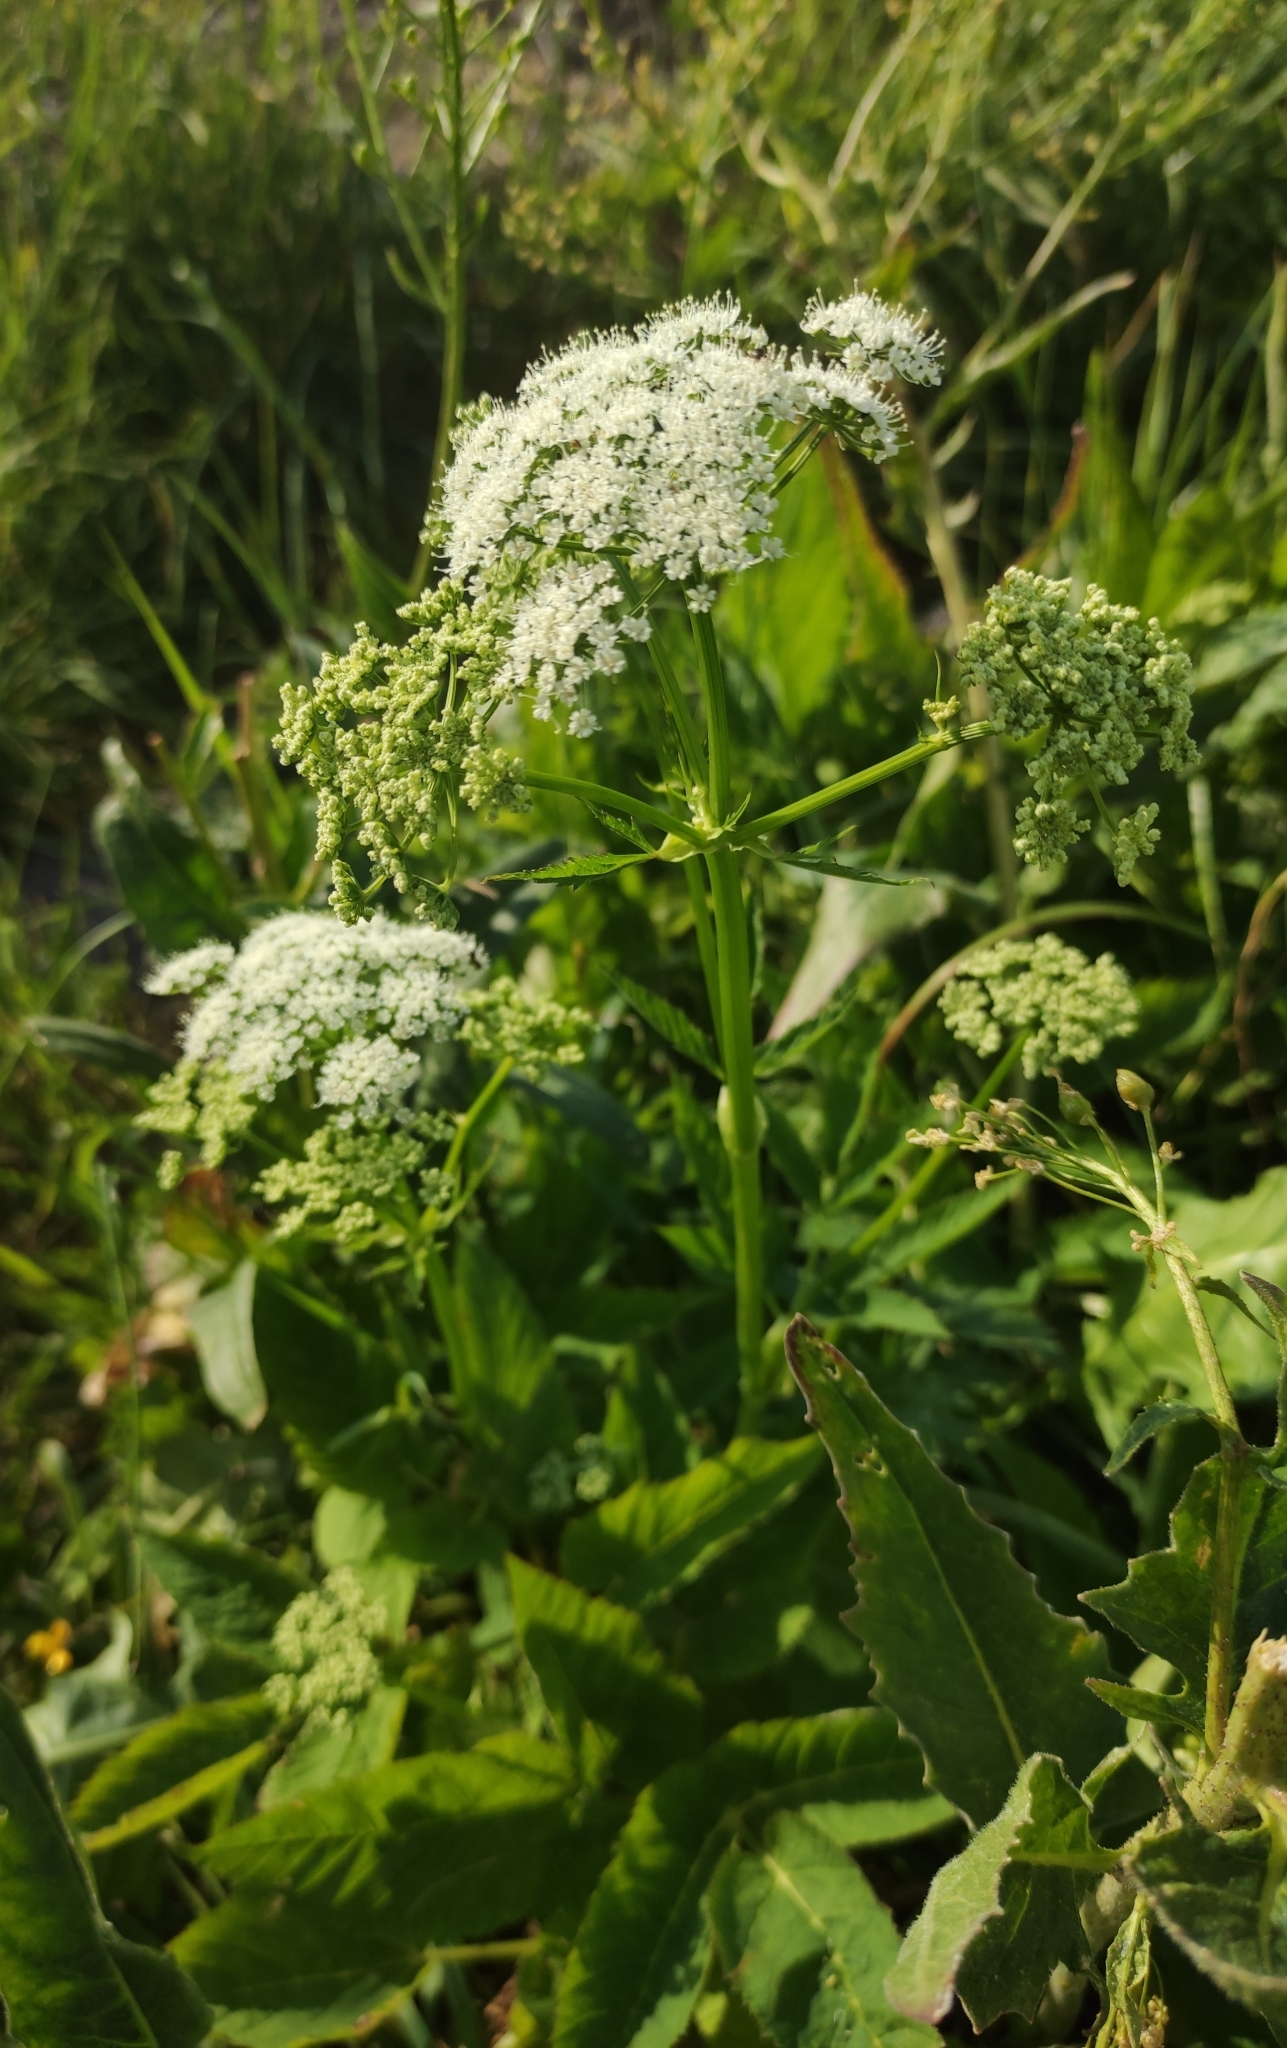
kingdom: Plantae
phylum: Tracheophyta
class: Magnoliopsida
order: Apiales
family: Apiaceae
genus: Aegopodium
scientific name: Aegopodium podagraria
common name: Ground-elder
